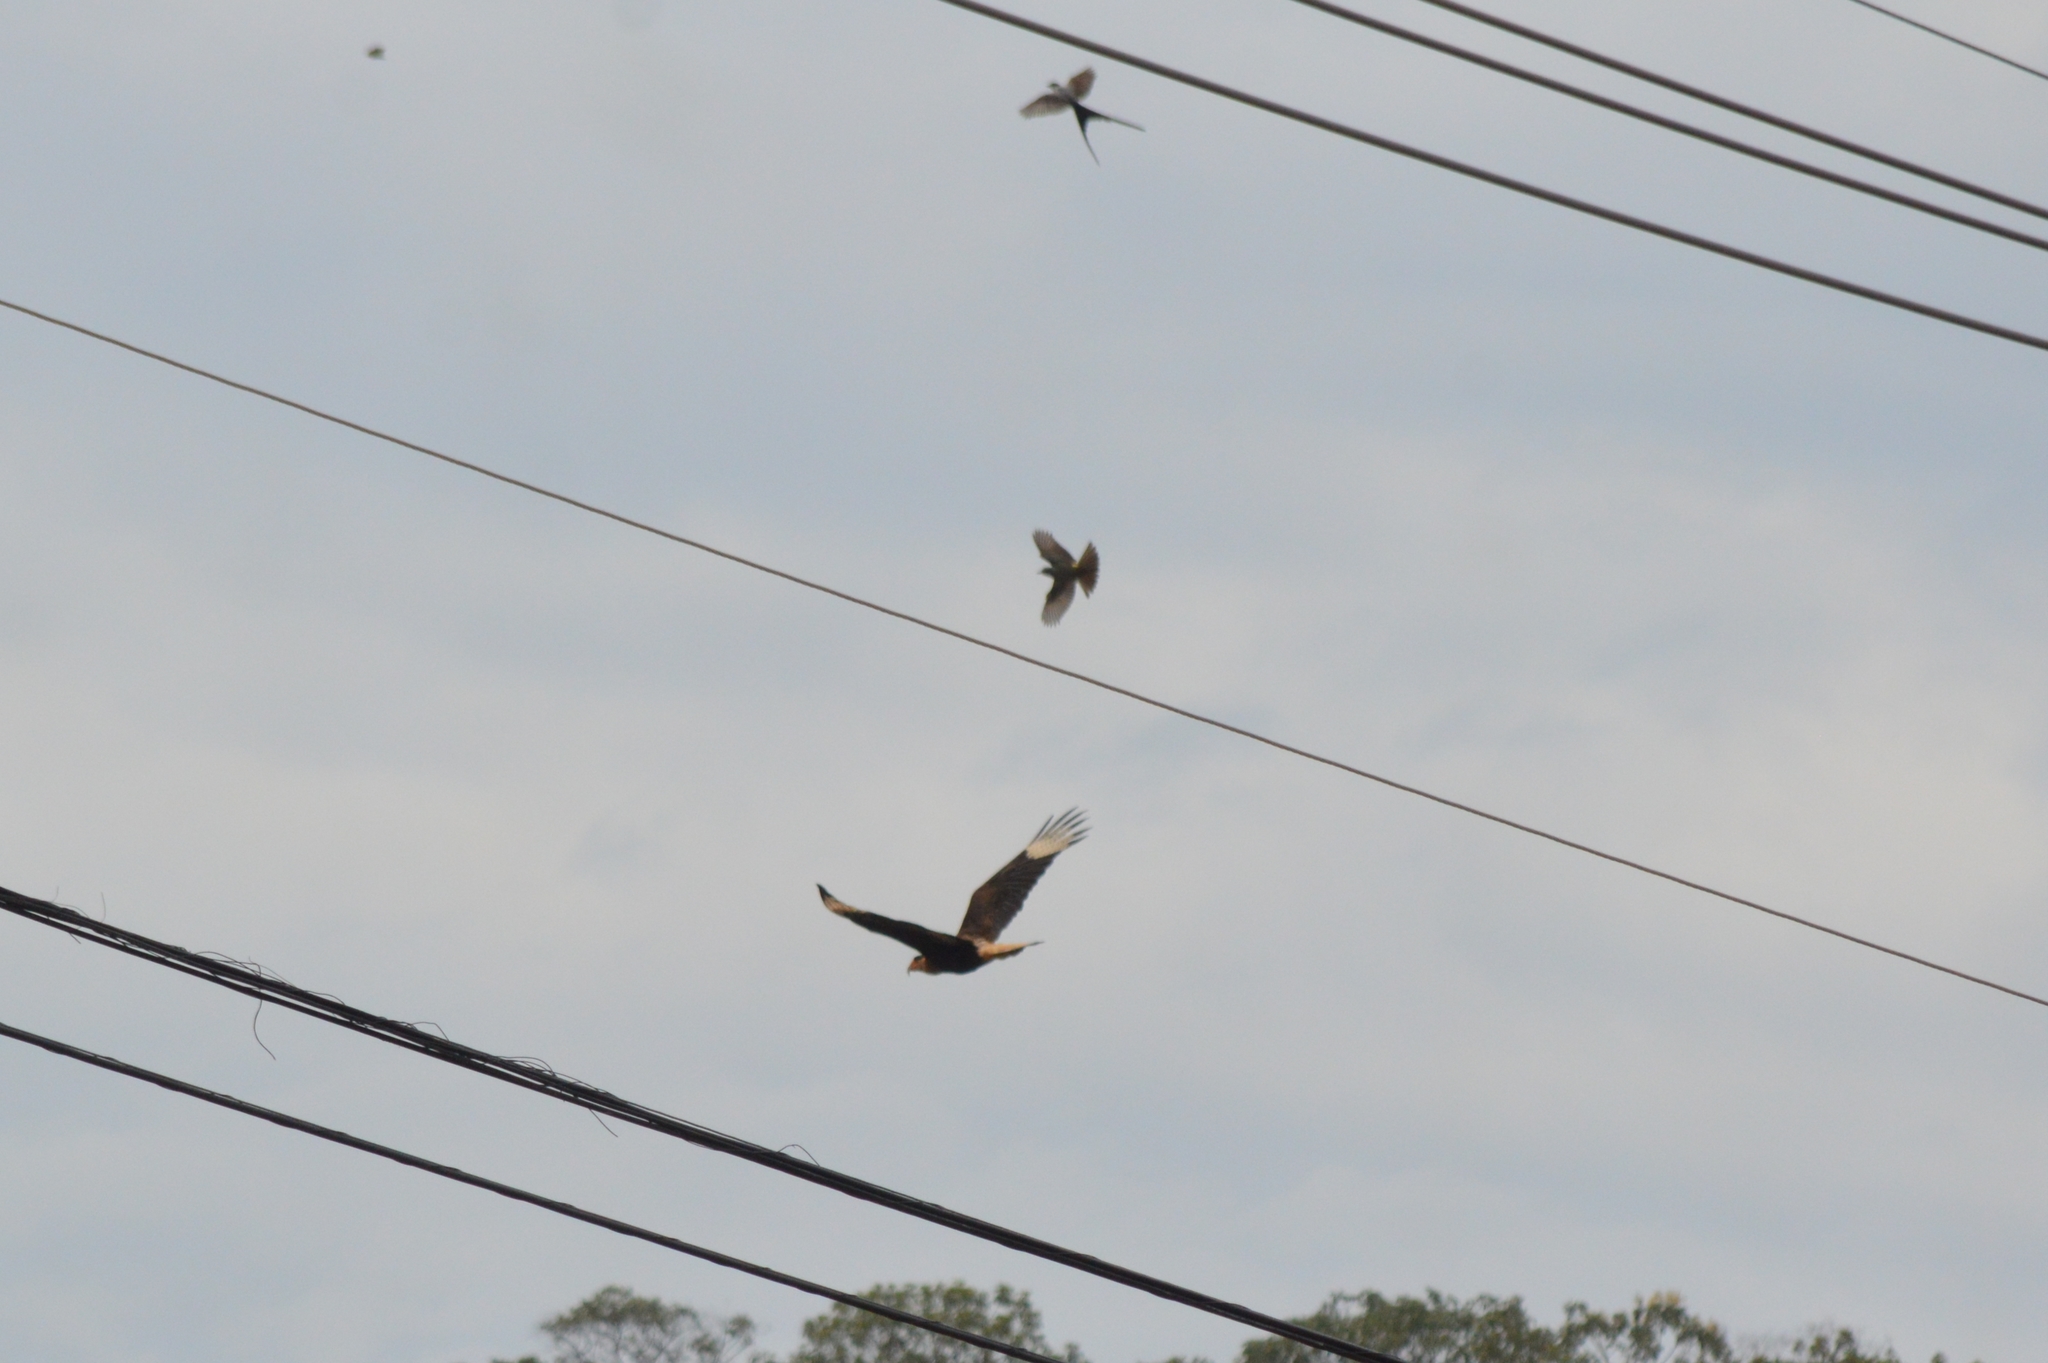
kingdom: Animalia
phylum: Chordata
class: Aves
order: Falconiformes
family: Falconidae
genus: Caracara
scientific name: Caracara plancus
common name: Southern caracara
